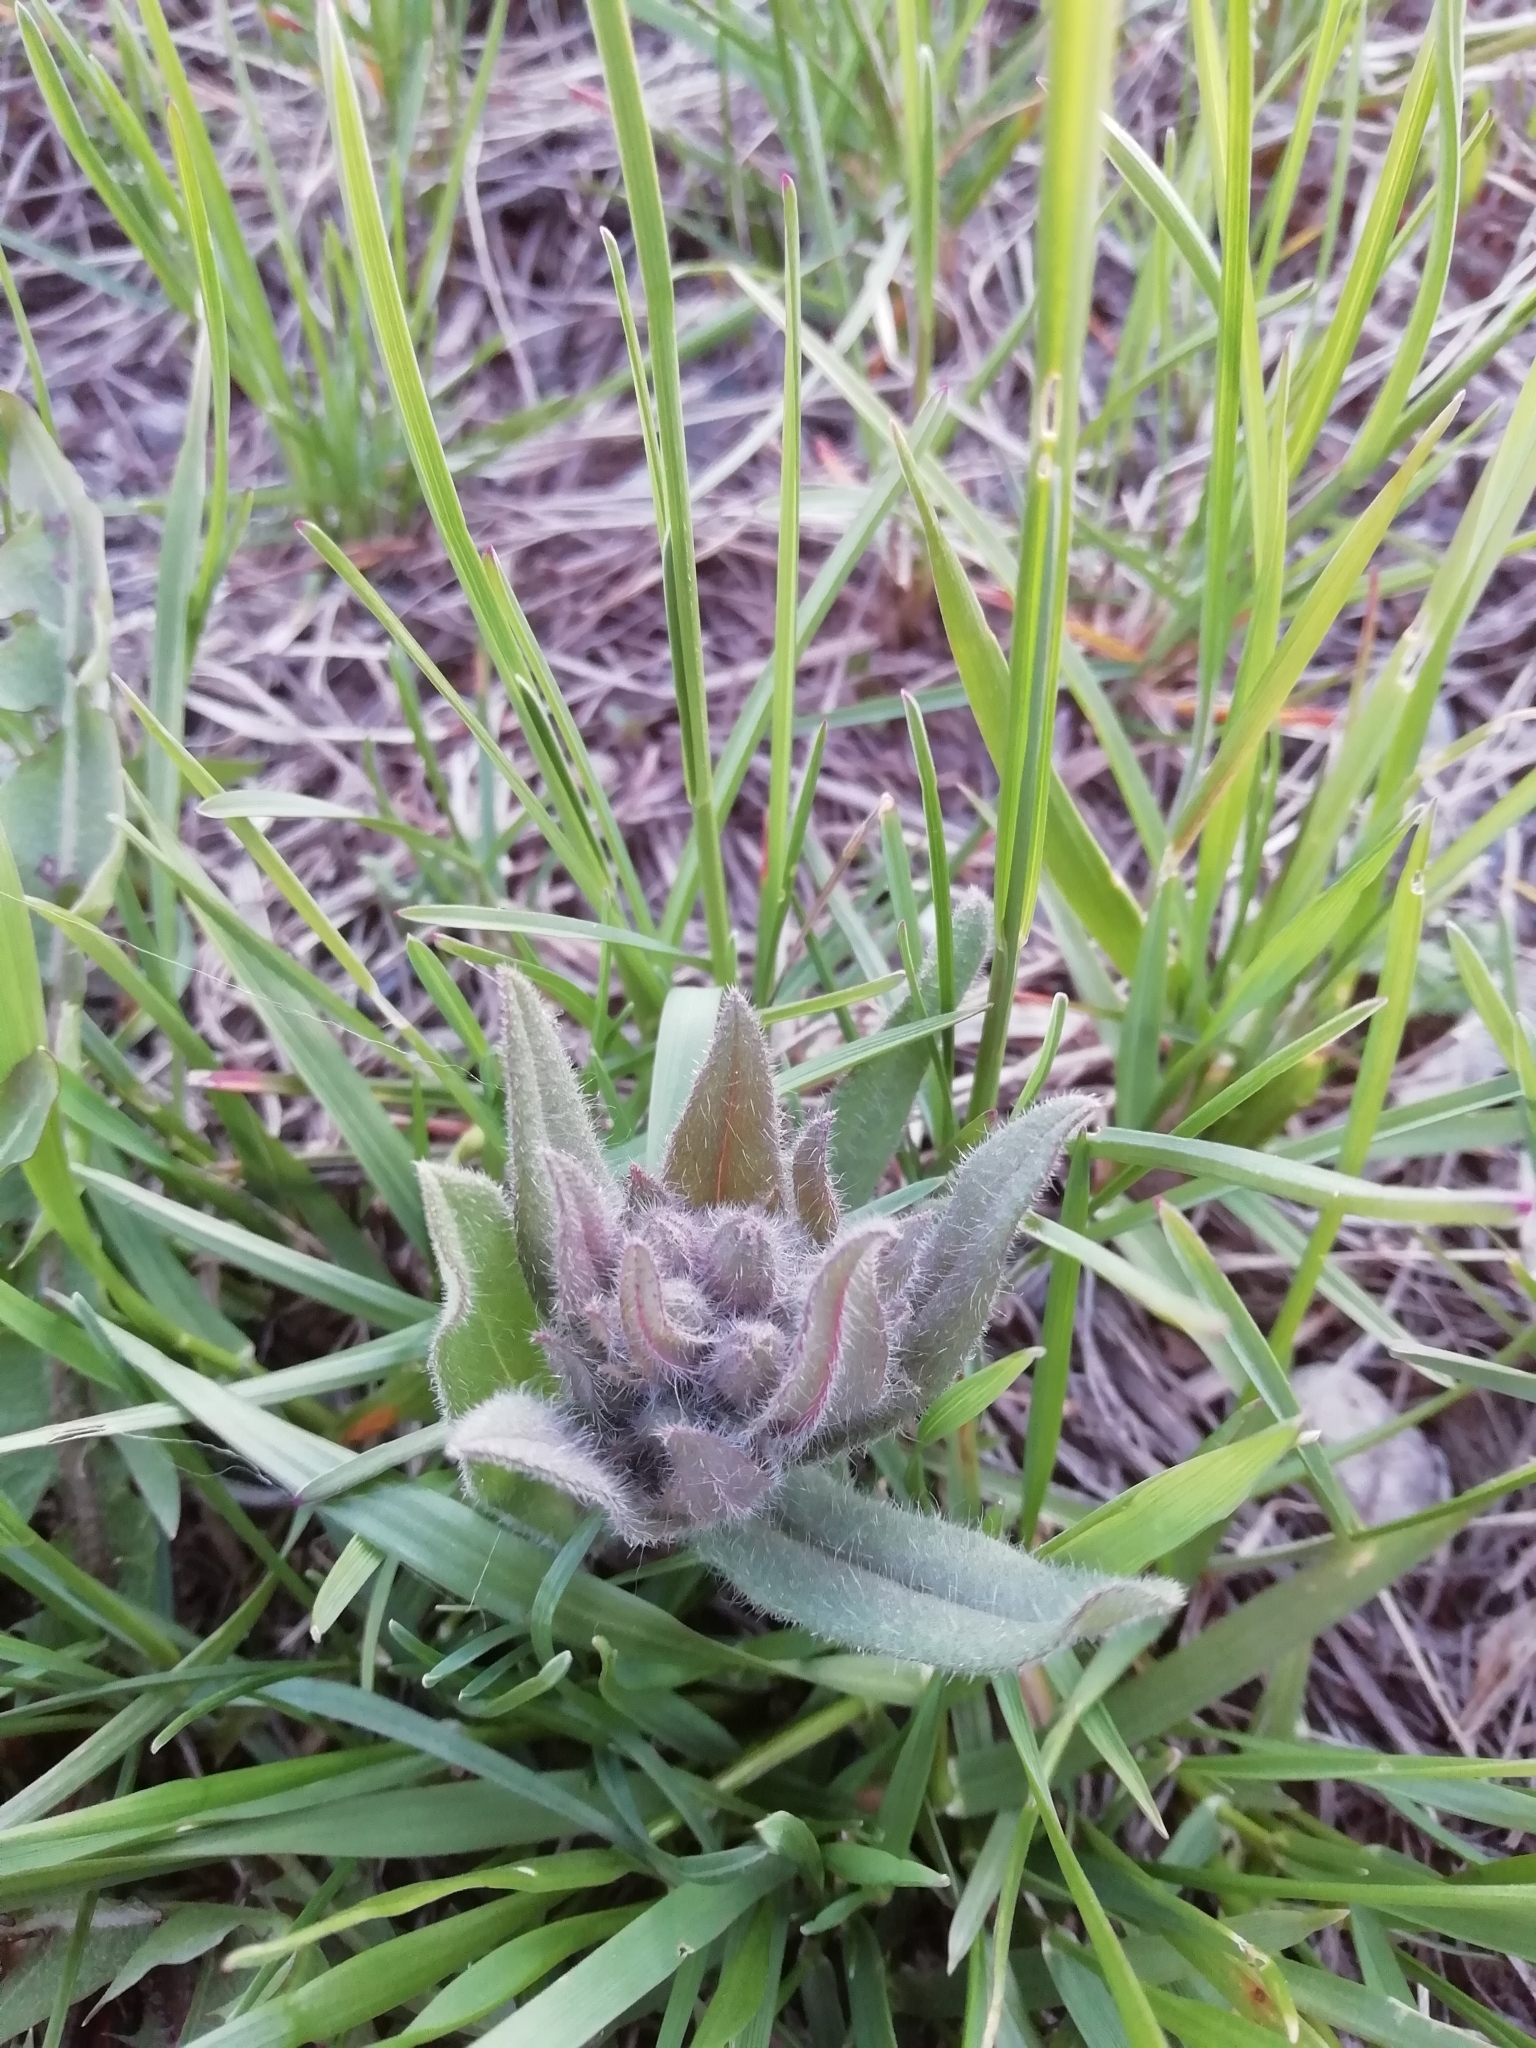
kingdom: Plantae
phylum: Tracheophyta
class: Magnoliopsida
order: Boraginales
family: Boraginaceae
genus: Nonea
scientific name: Nonea pulla
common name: Brown nonea
